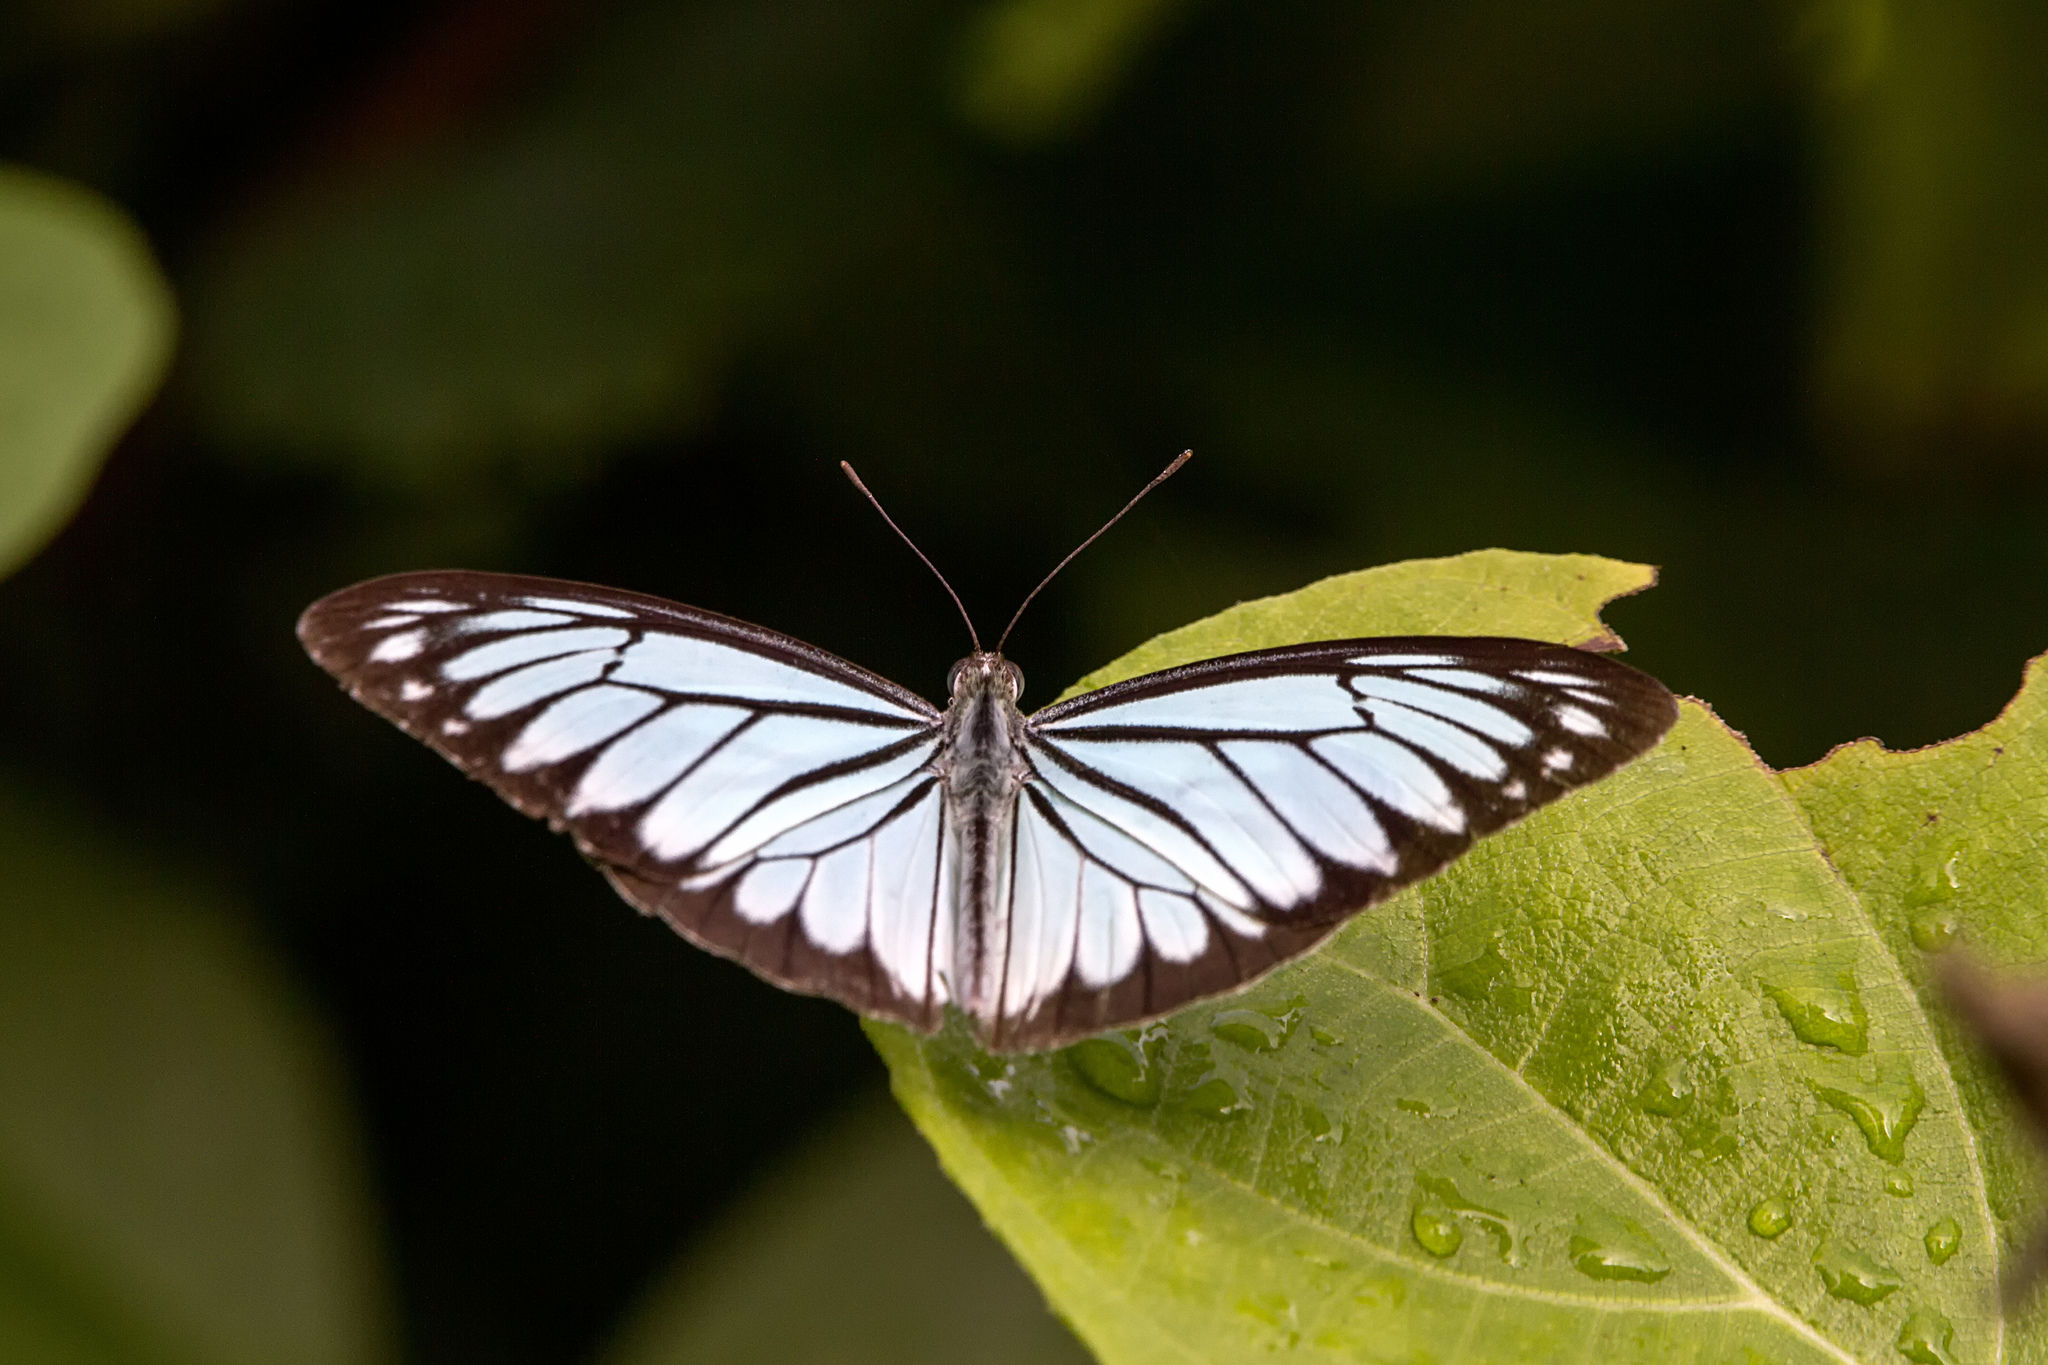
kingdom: Animalia
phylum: Arthropoda
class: Insecta
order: Lepidoptera
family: Pieridae
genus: Pareronia
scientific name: Pareronia hippia
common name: Indian wanderer
